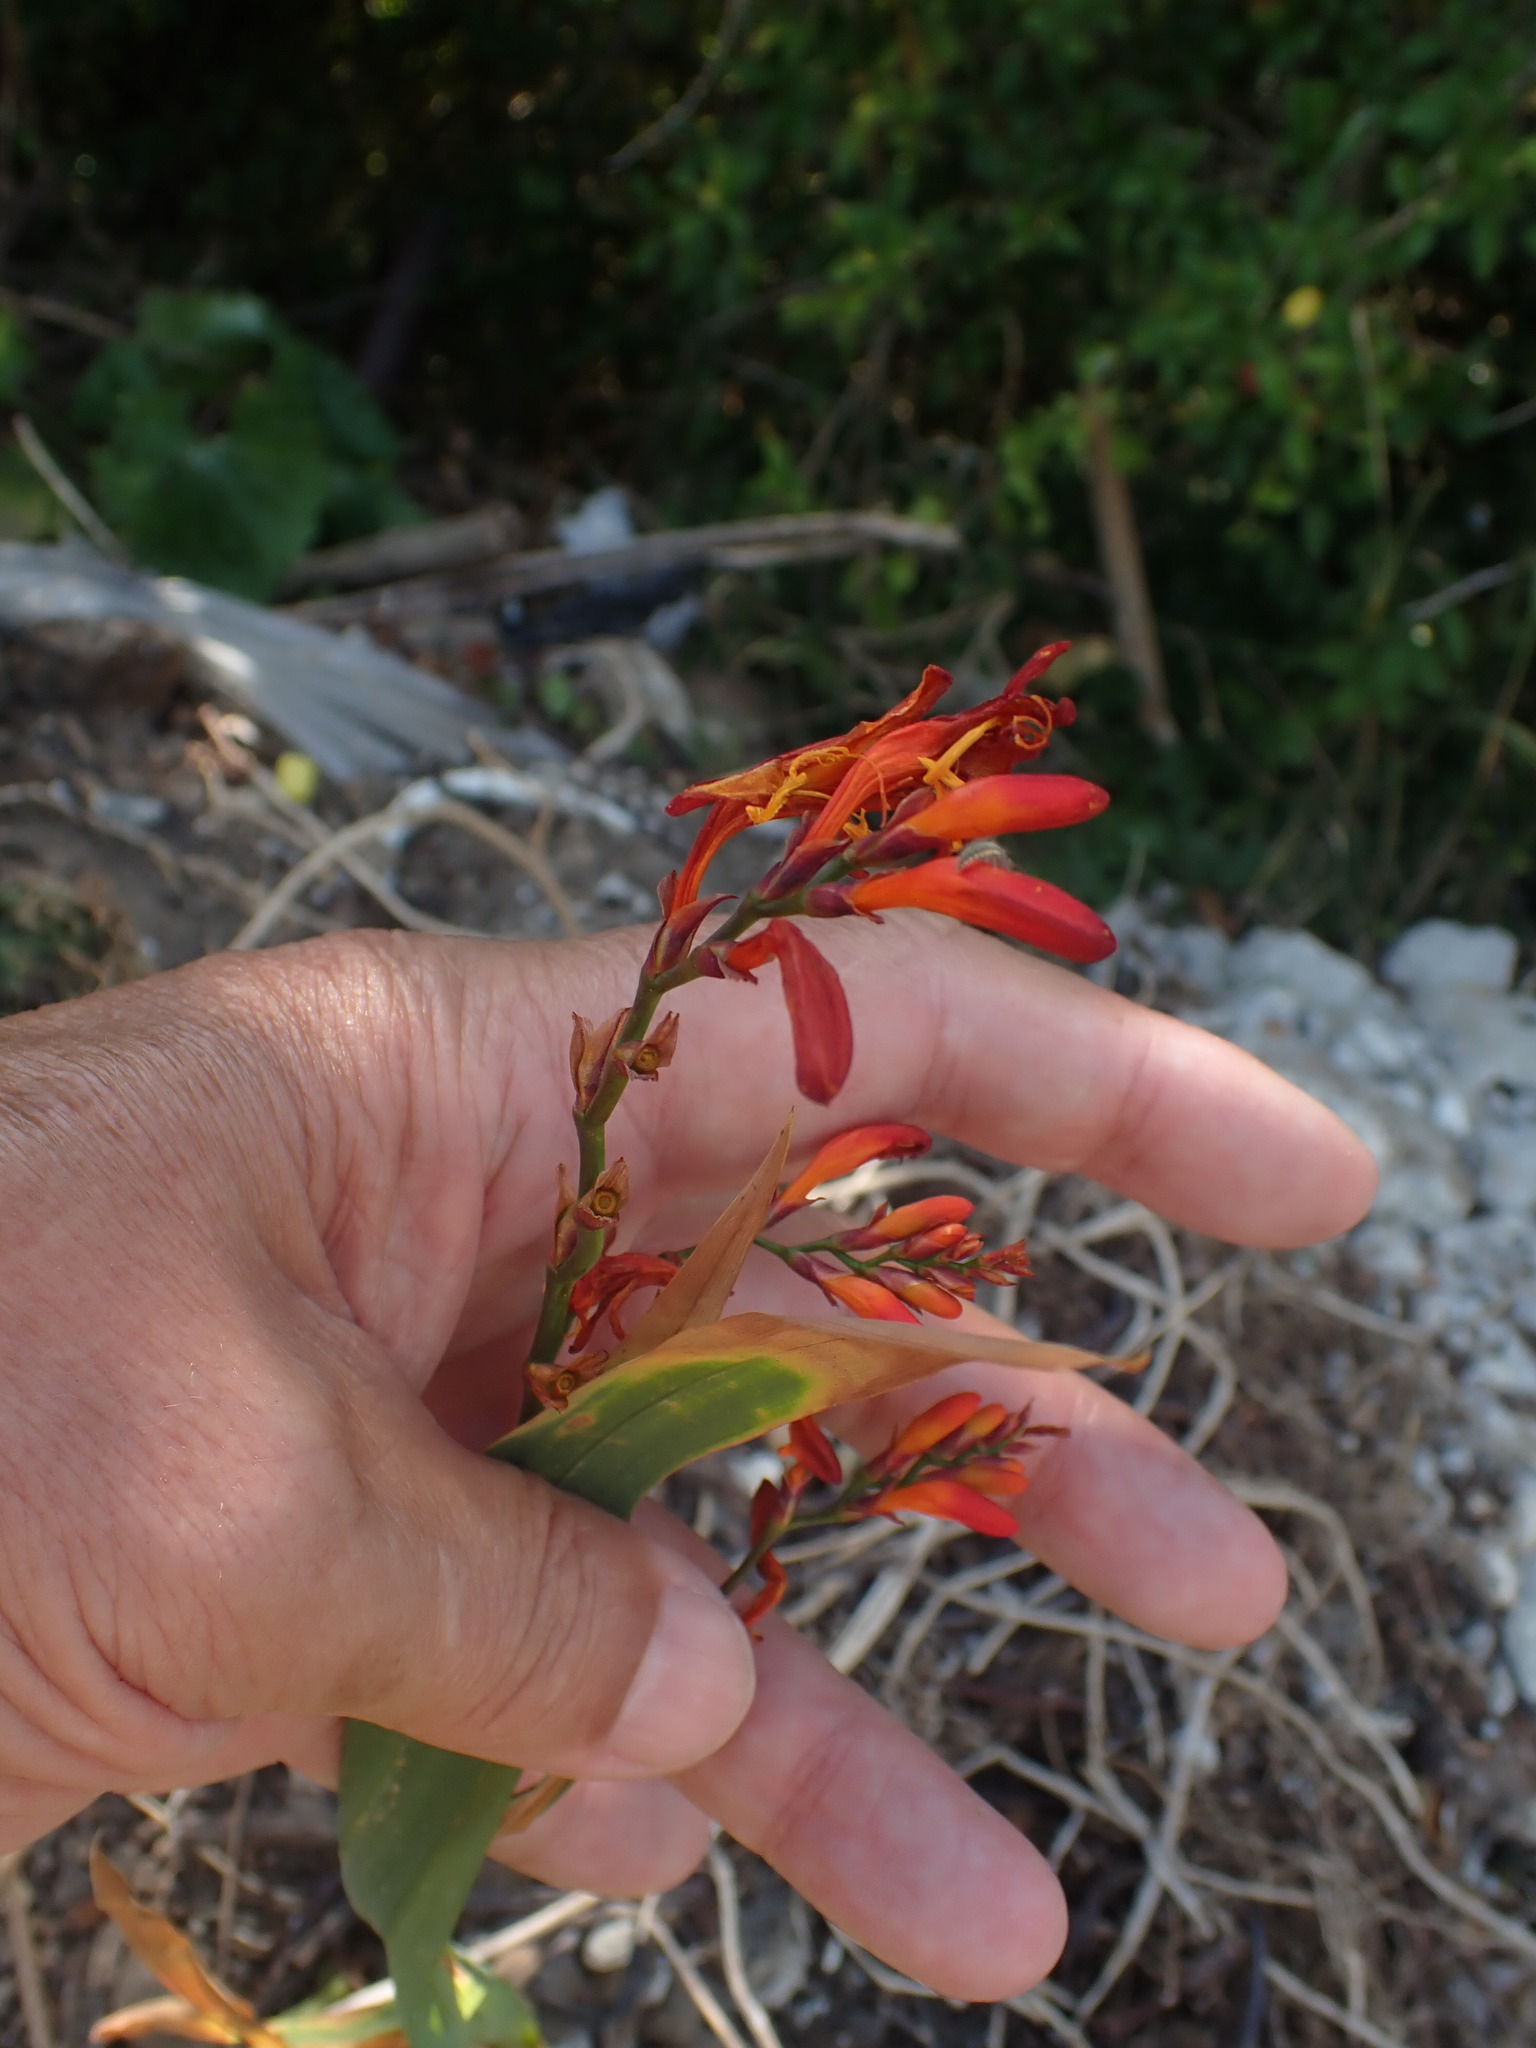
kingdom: Plantae
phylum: Tracheophyta
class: Liliopsida
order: Asparagales
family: Iridaceae
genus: Crocosmia
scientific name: Crocosmia crocosmiiflora
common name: Montbretia
